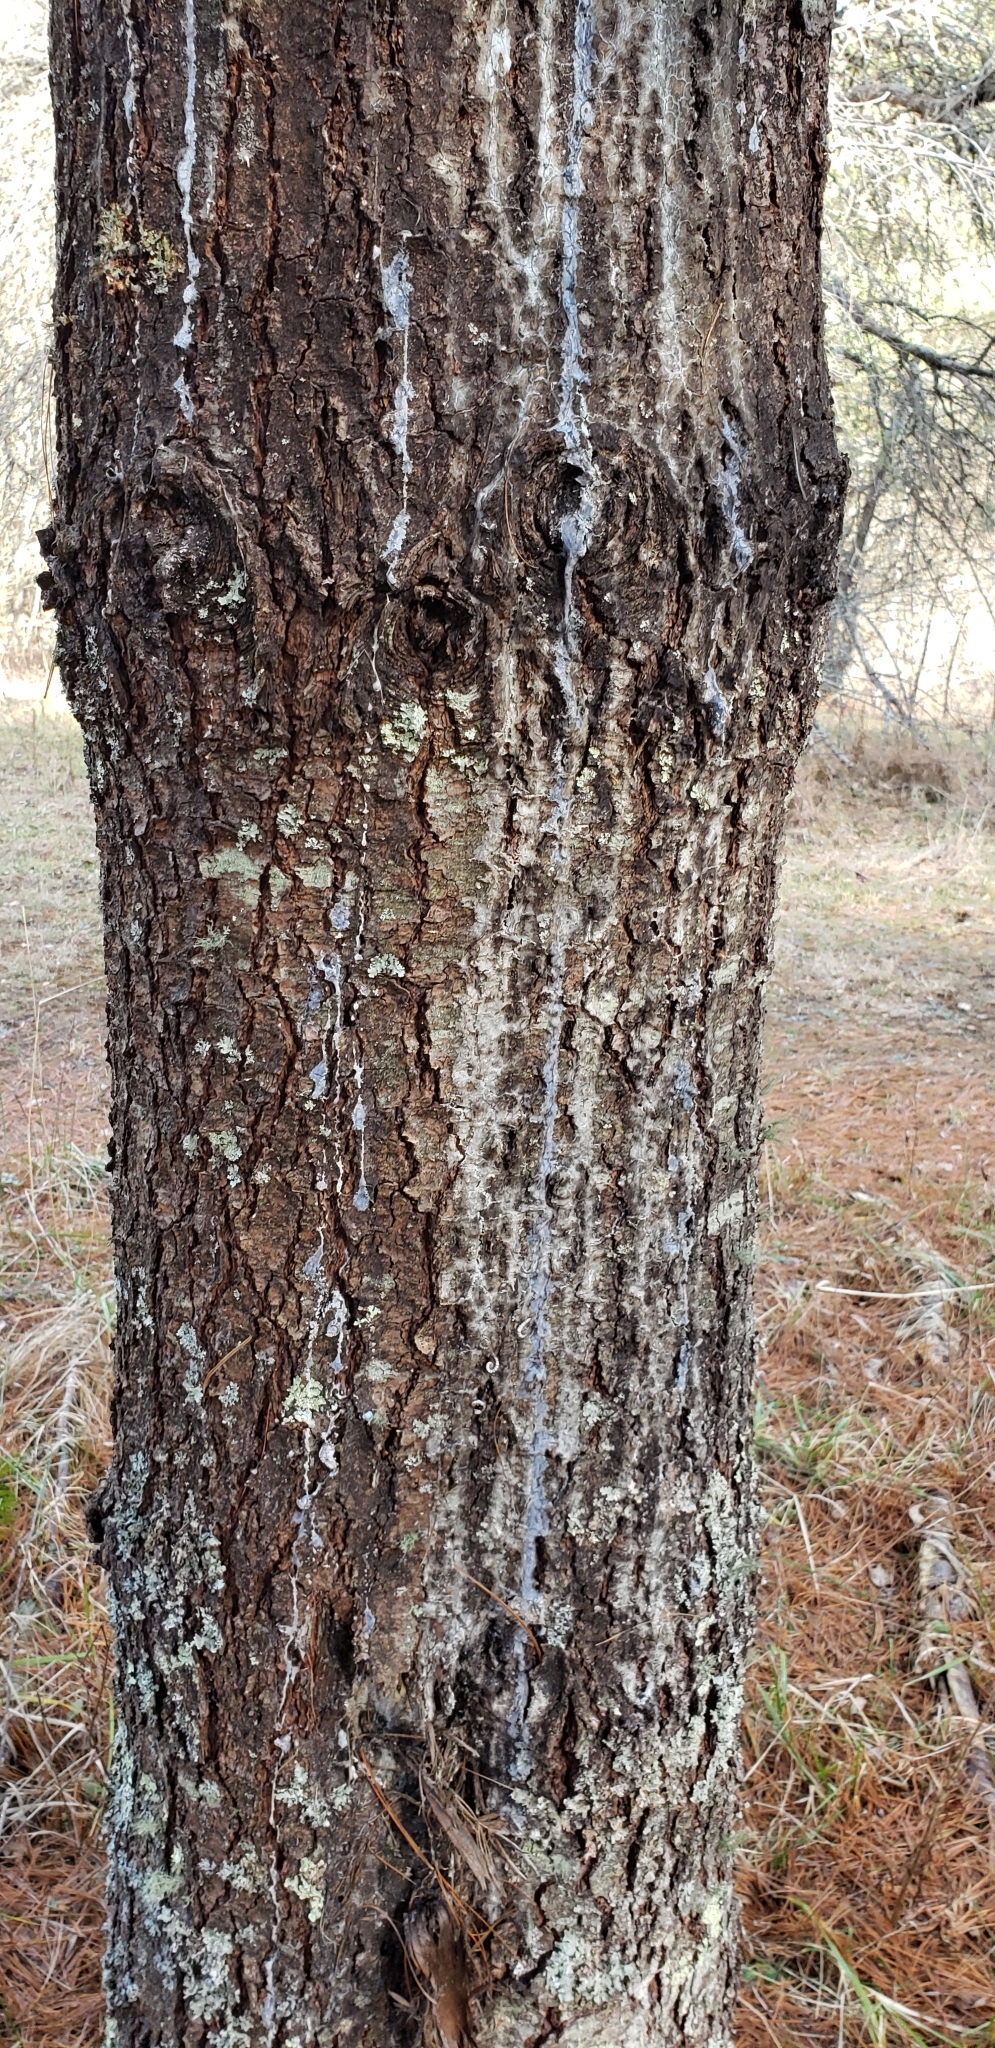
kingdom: Plantae
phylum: Tracheophyta
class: Pinopsida
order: Pinales
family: Pinaceae
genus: Pinus
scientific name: Pinus strobus
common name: Weymouth pine
